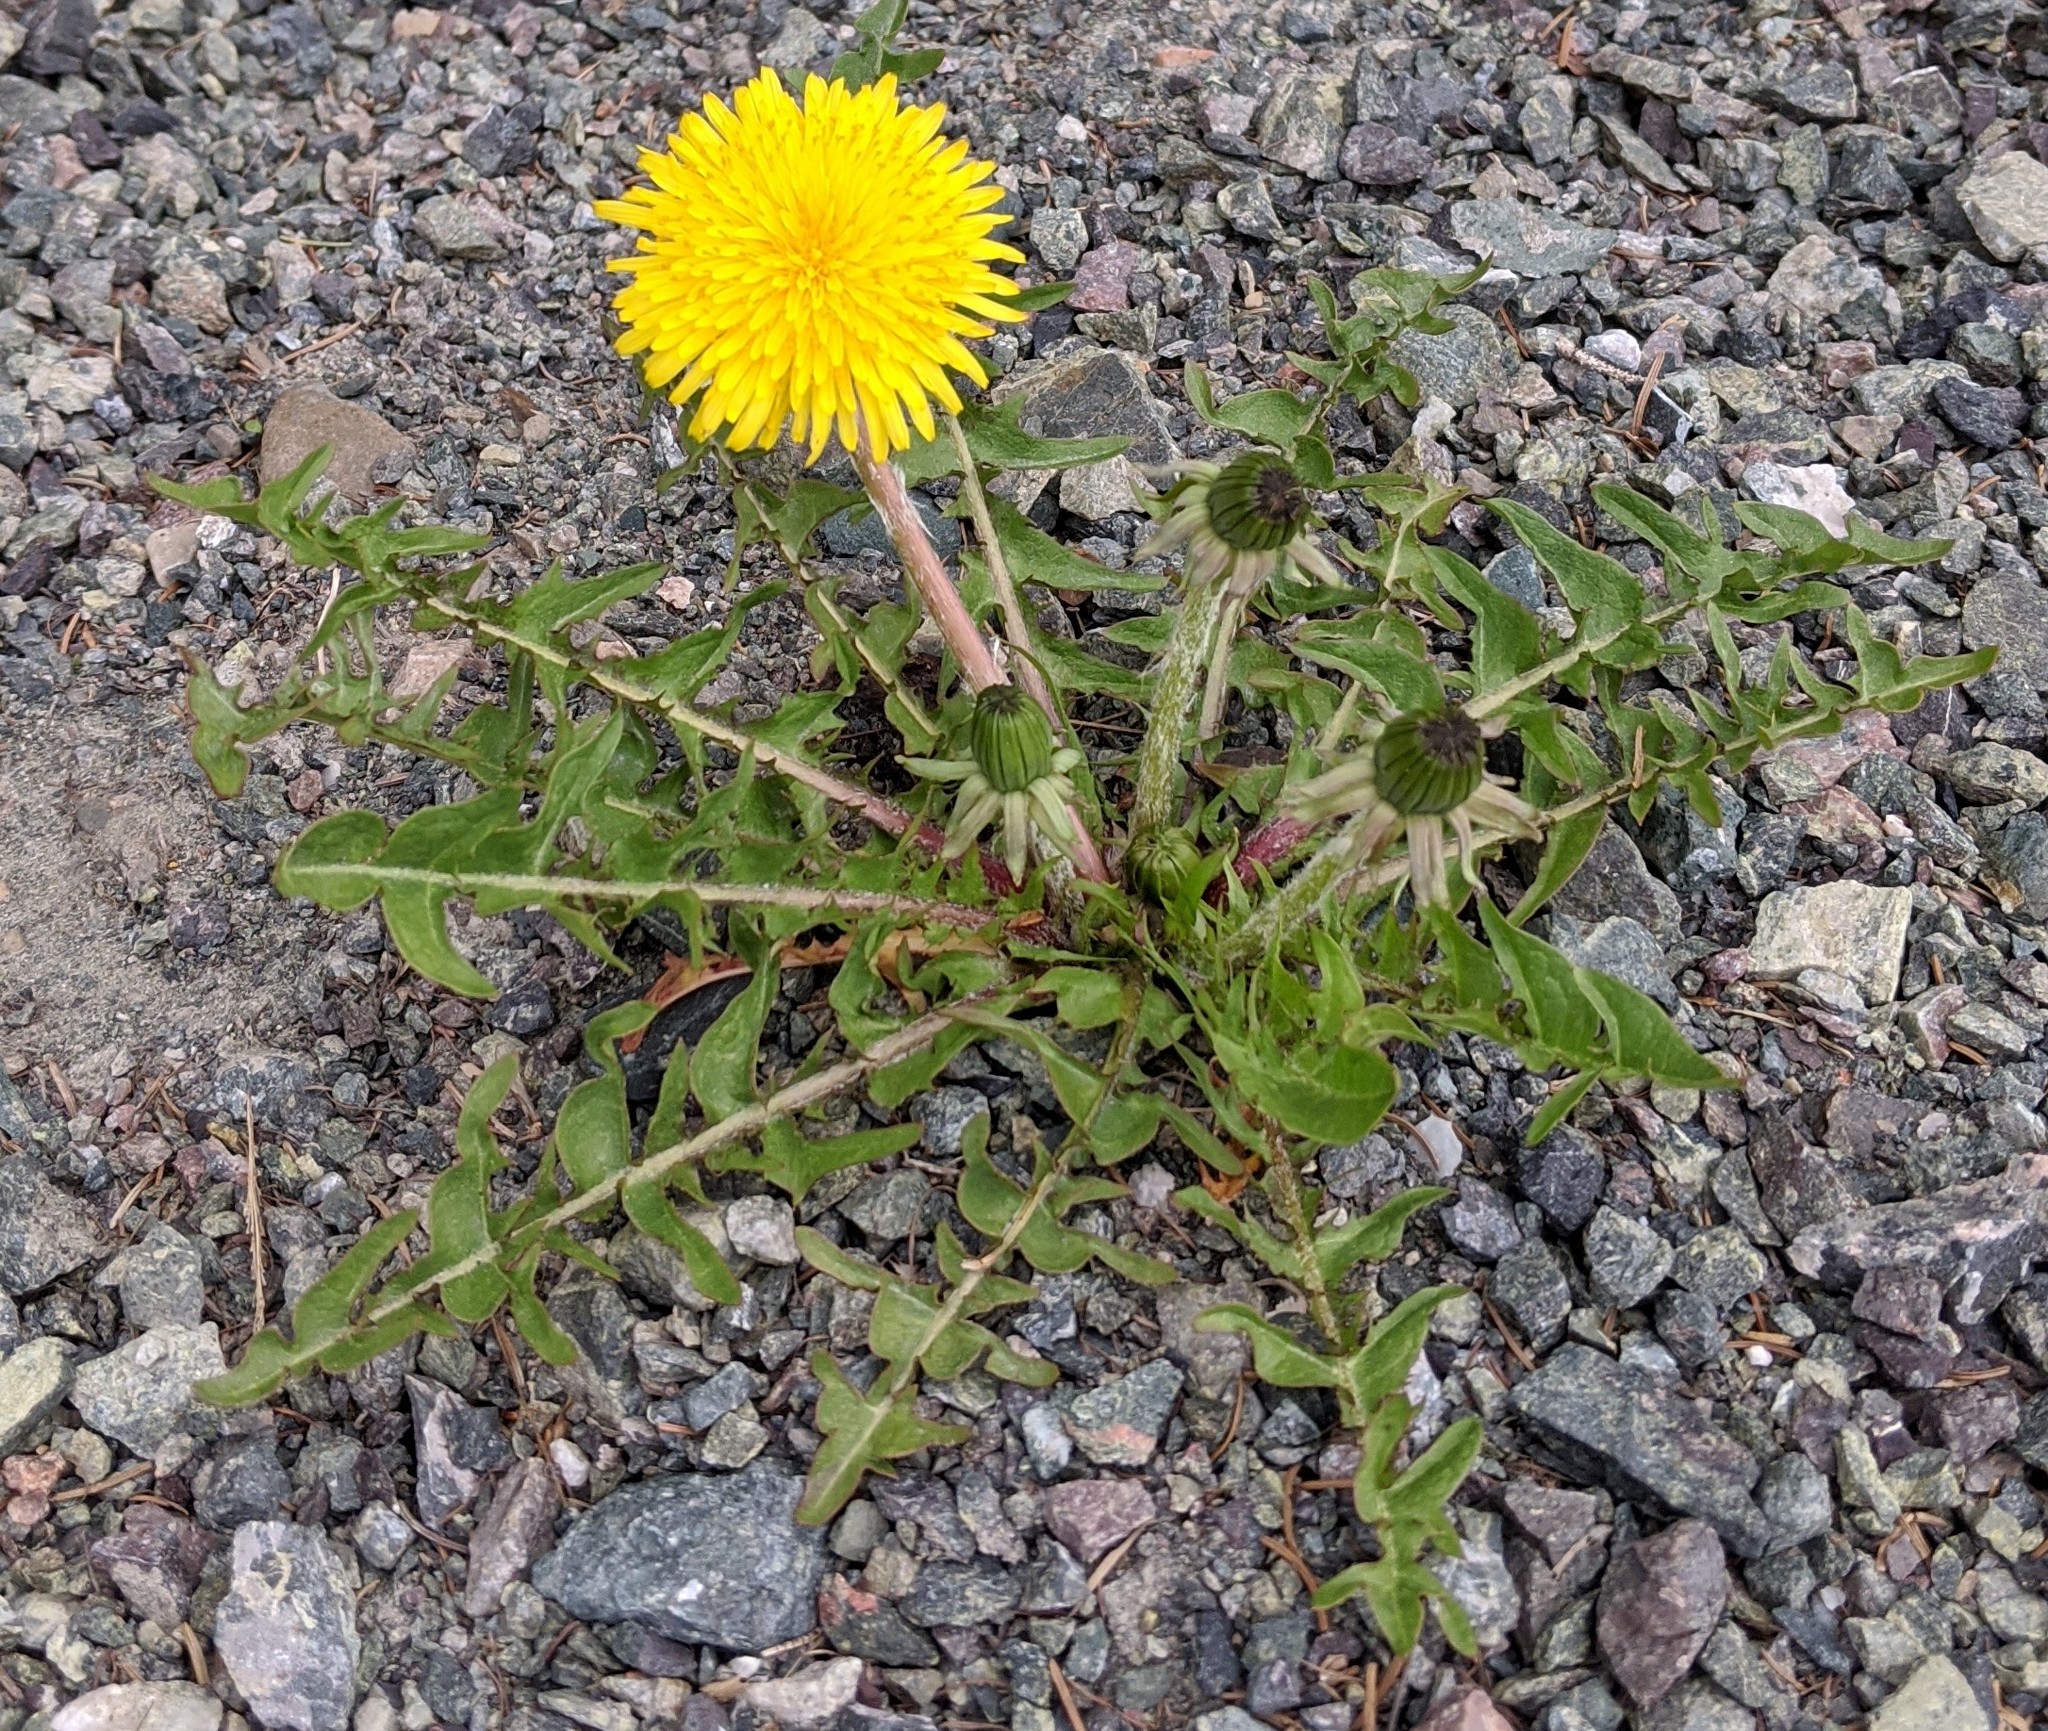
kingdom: Plantae
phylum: Tracheophyta
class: Magnoliopsida
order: Asterales
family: Asteraceae
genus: Taraxacum
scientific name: Taraxacum officinale
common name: Common dandelion
